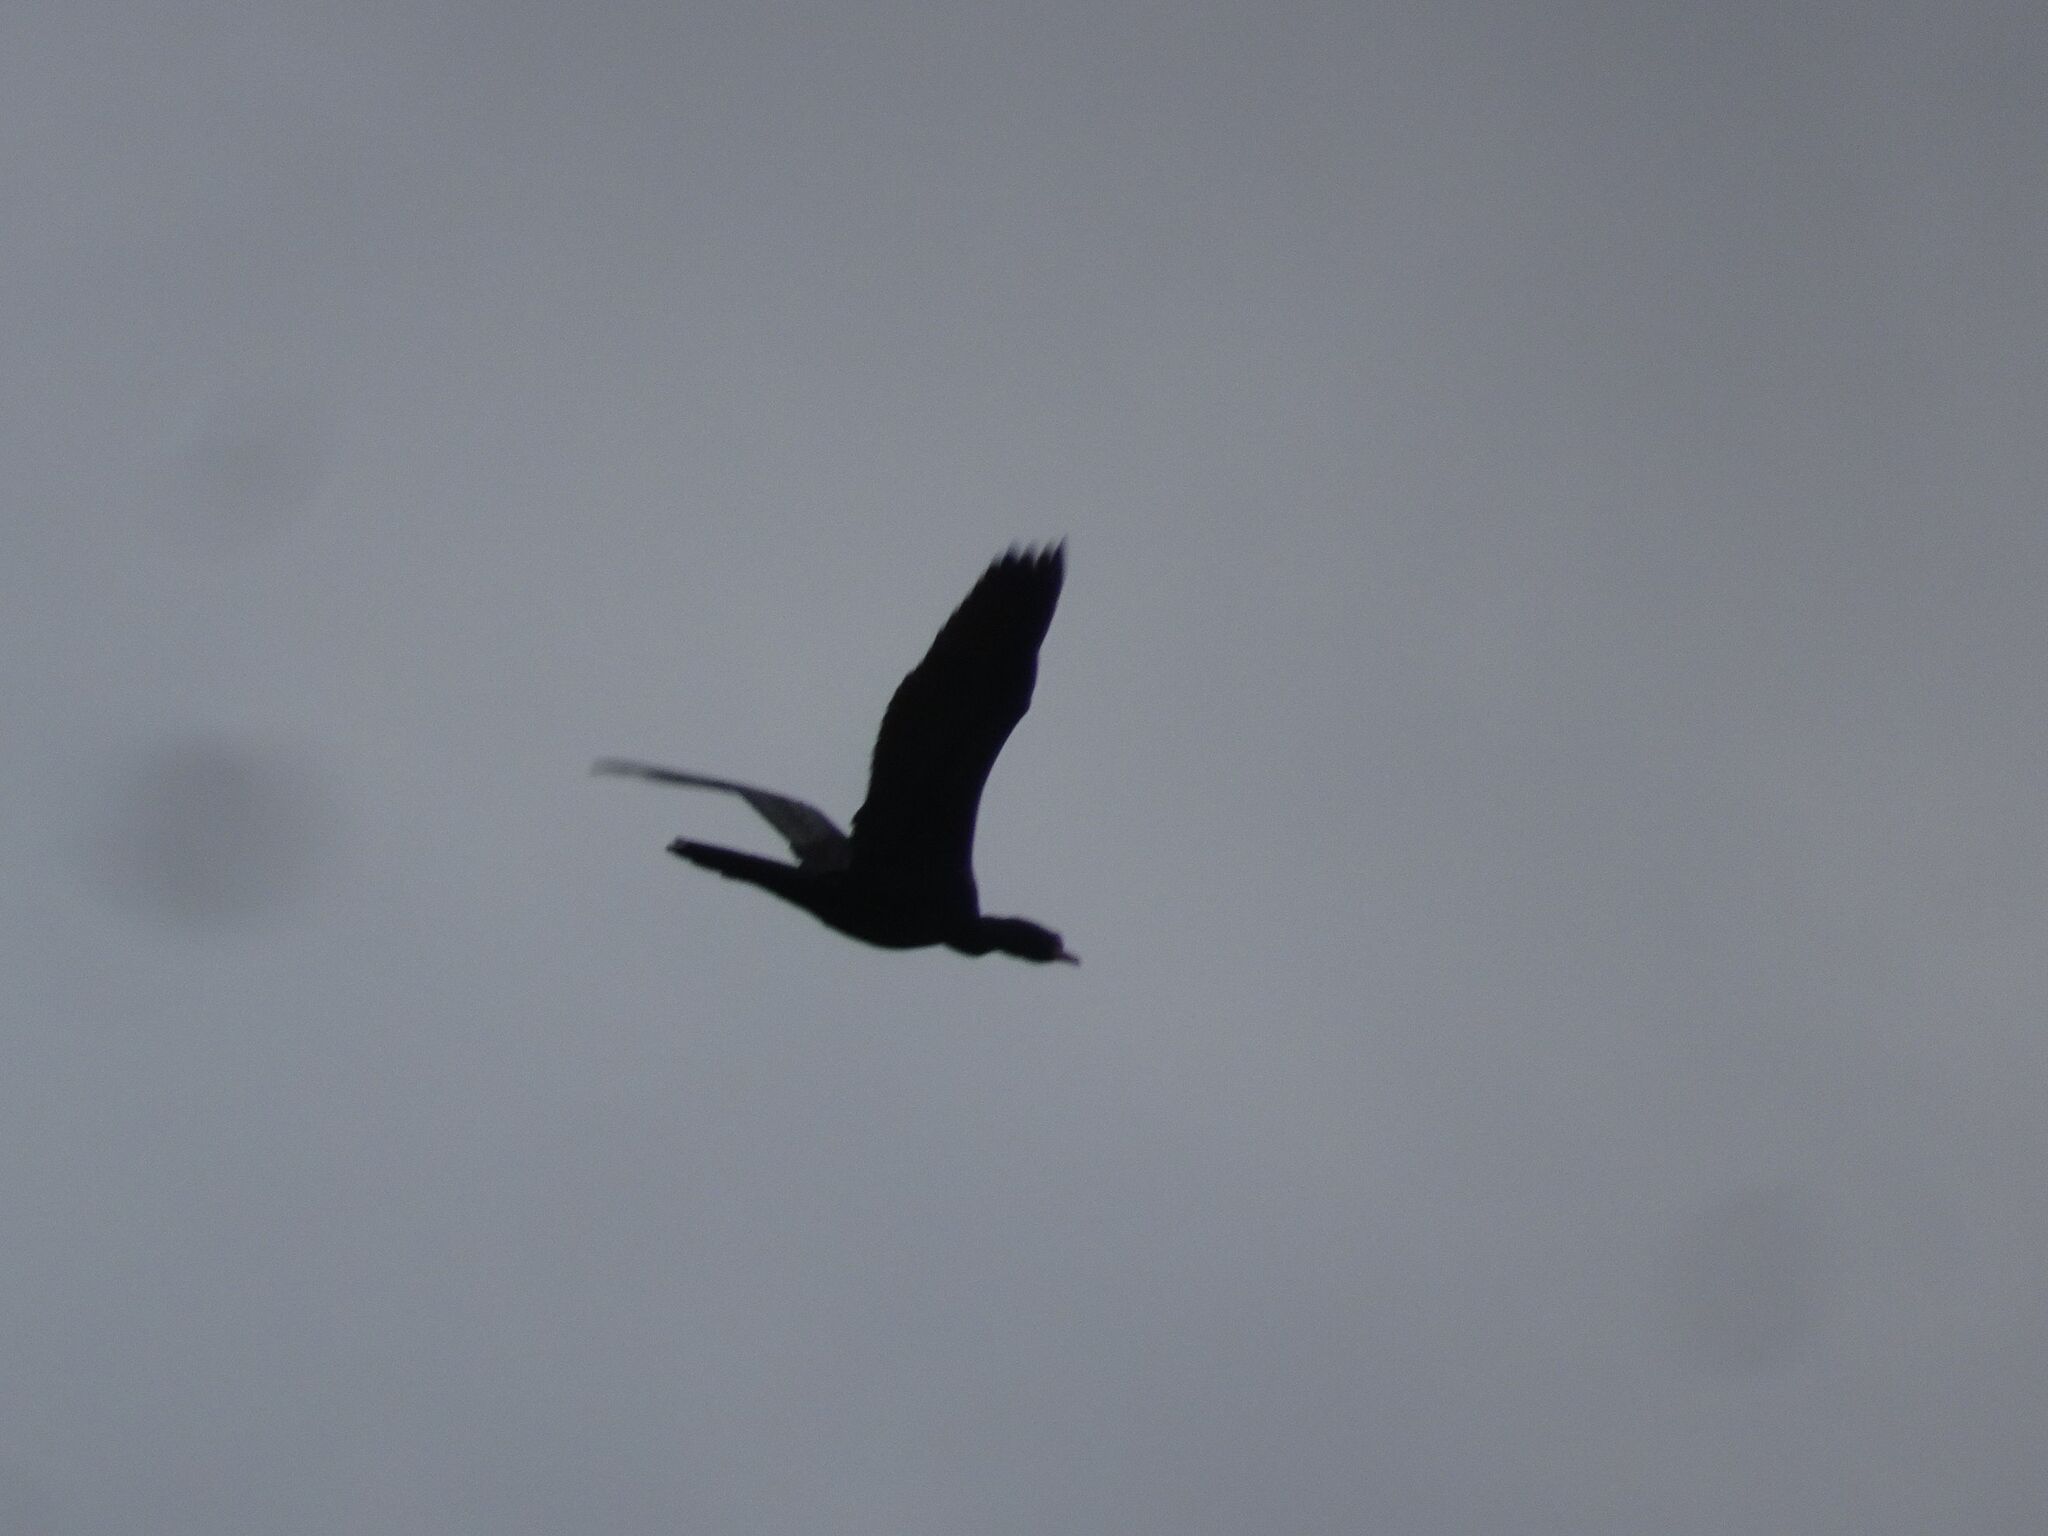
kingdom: Animalia
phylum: Chordata
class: Aves
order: Suliformes
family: Phalacrocoracidae
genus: Microcarbo
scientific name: Microcarbo africanus
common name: Long-tailed cormorant
